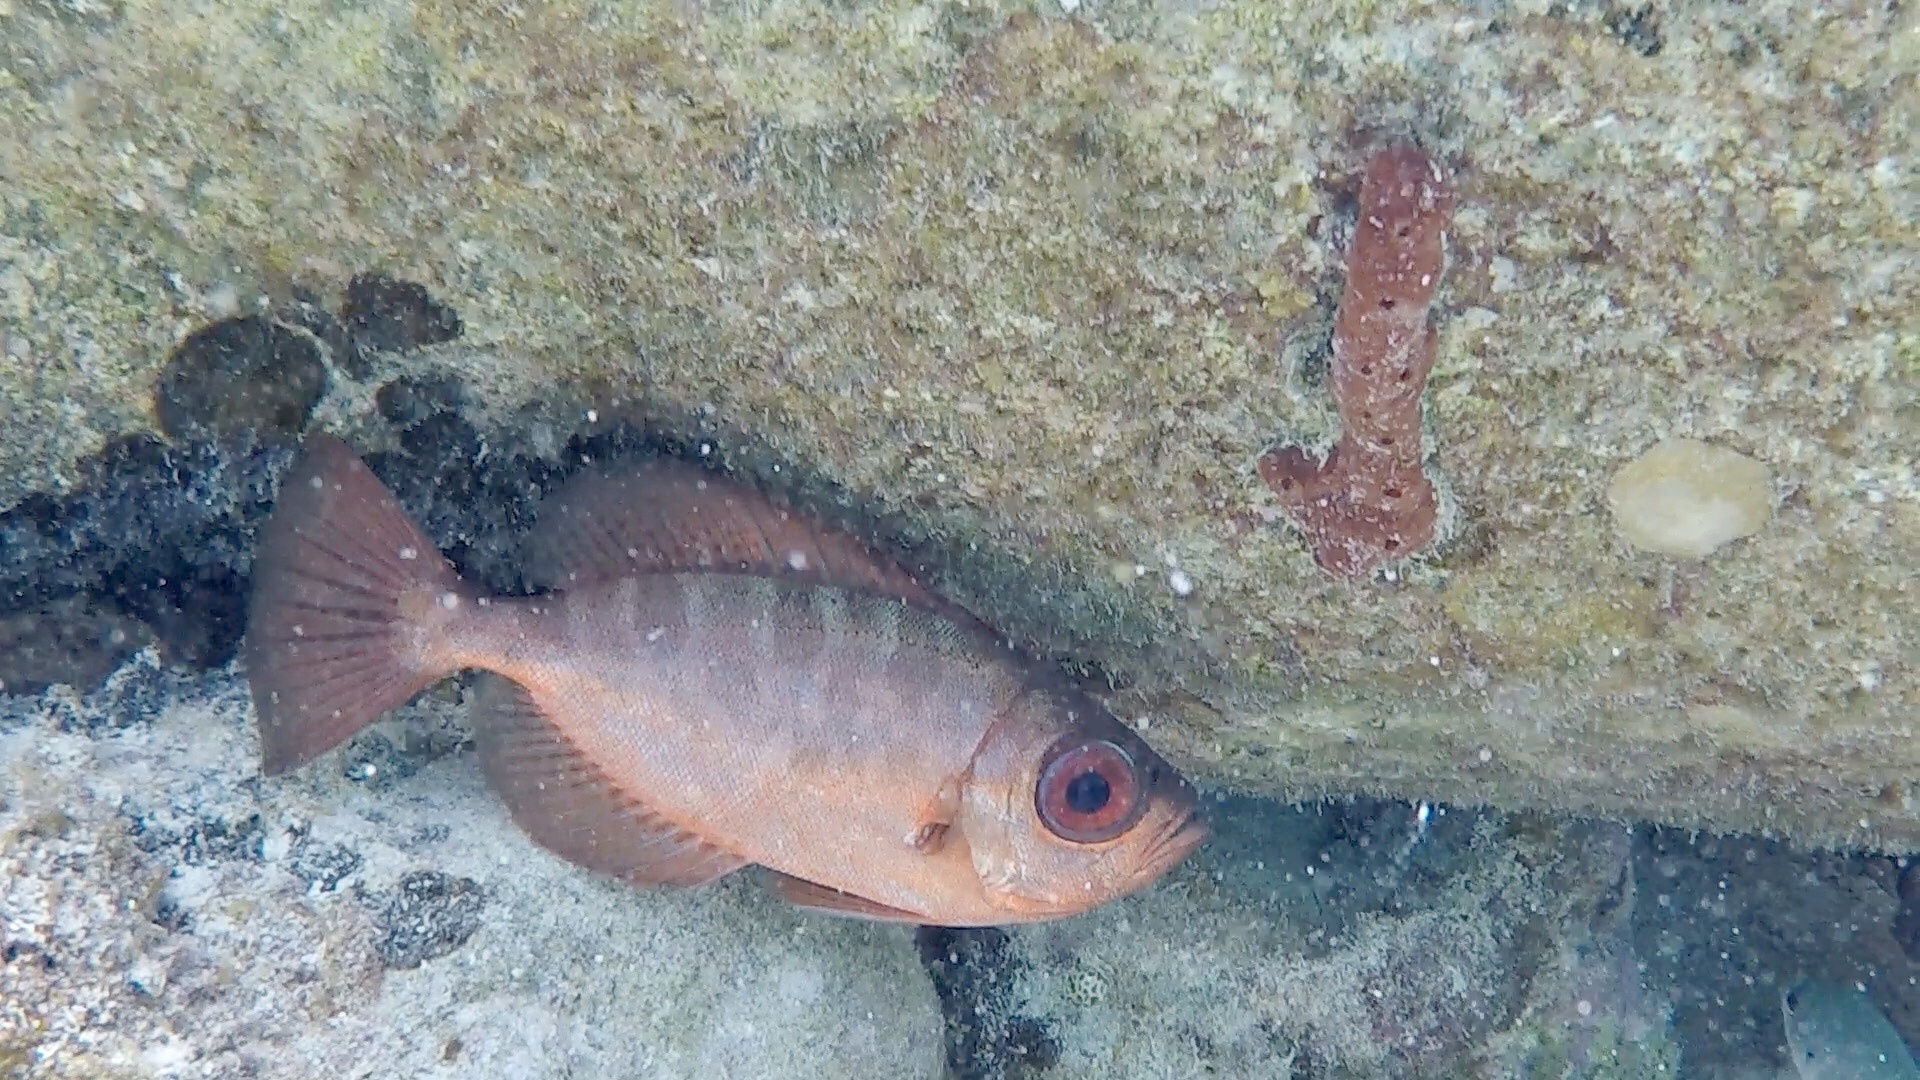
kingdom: Animalia
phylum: Chordata
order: Perciformes
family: Priacanthidae
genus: Heteropriacanthus
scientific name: Heteropriacanthus cruentatus
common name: Glasseye
